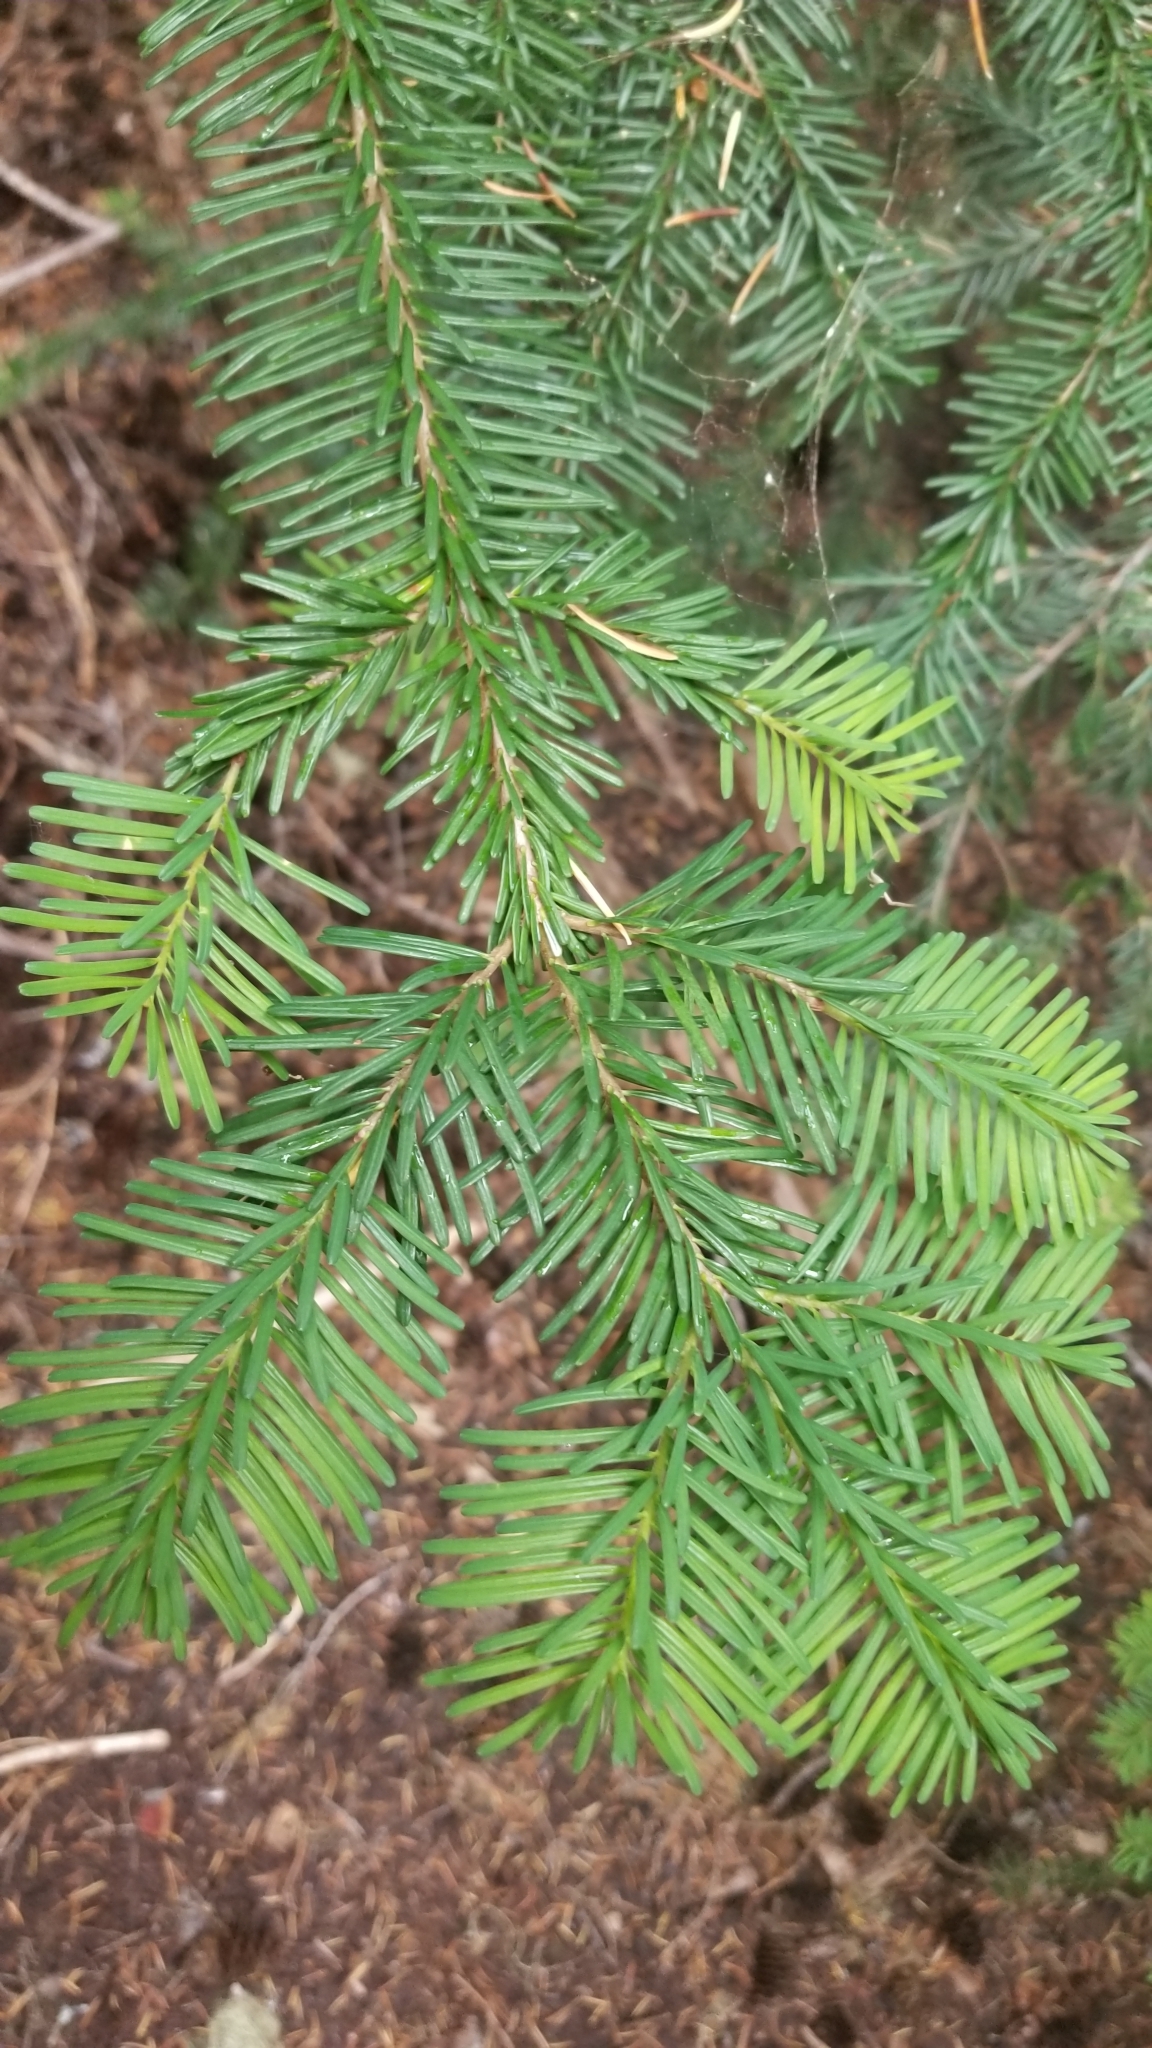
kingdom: Plantae
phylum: Tracheophyta
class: Pinopsida
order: Pinales
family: Pinaceae
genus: Abies
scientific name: Abies amabilis
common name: Pacific silver fir
